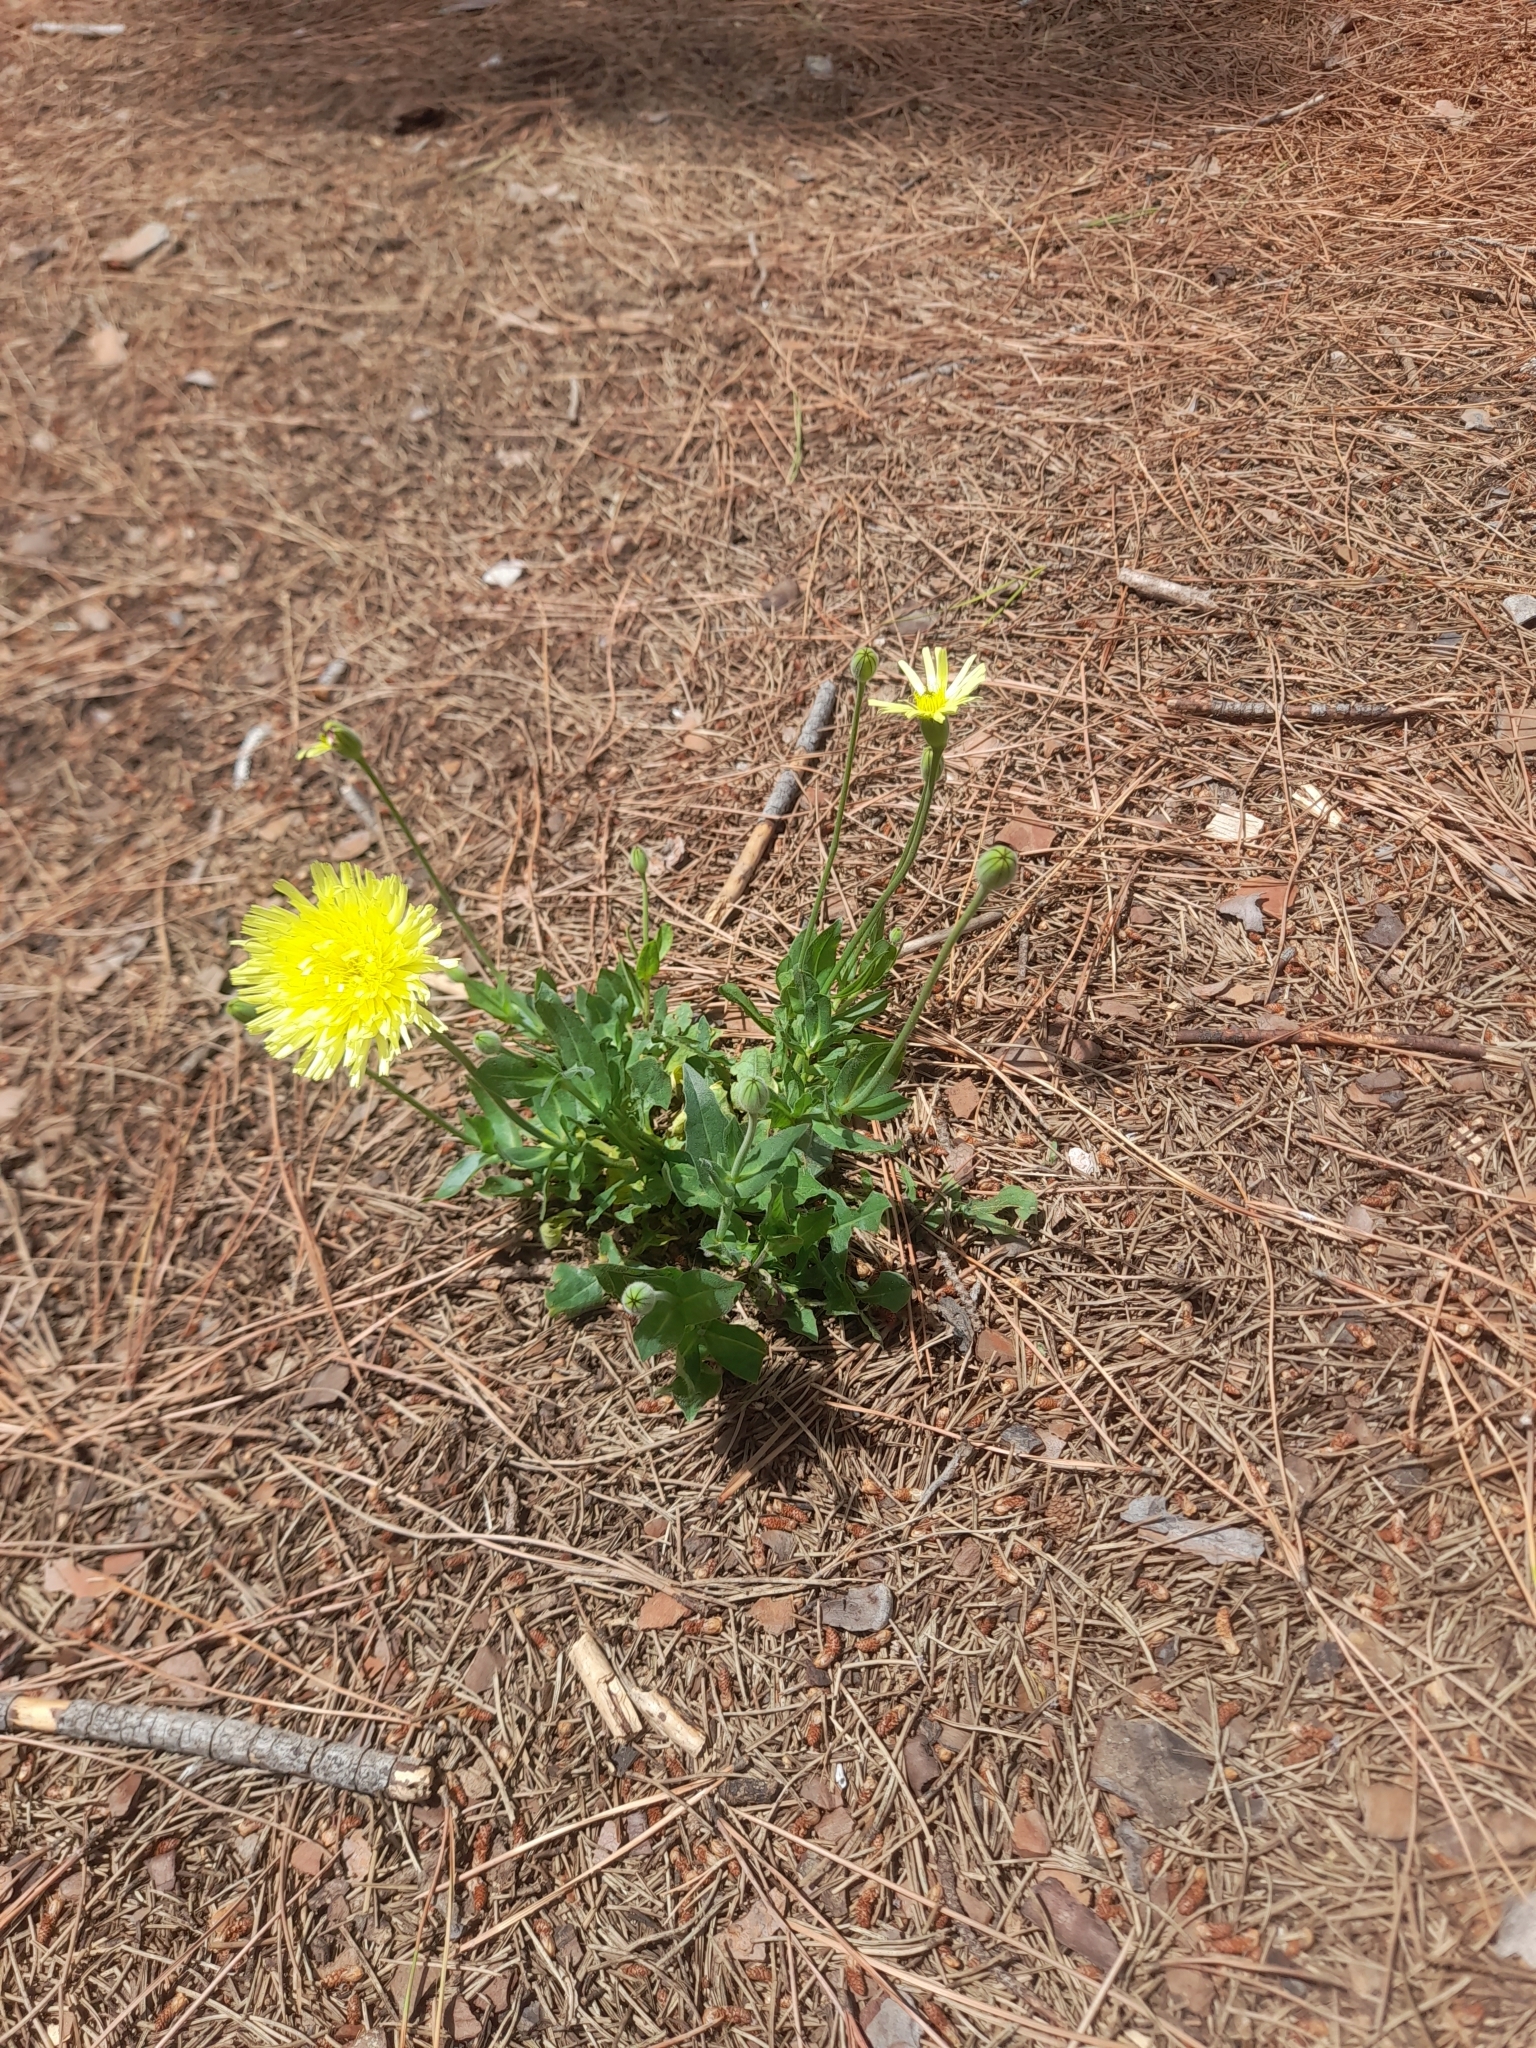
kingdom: Plantae
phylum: Tracheophyta
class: Magnoliopsida
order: Asterales
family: Asteraceae
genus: Urospermum
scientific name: Urospermum dalechampii
